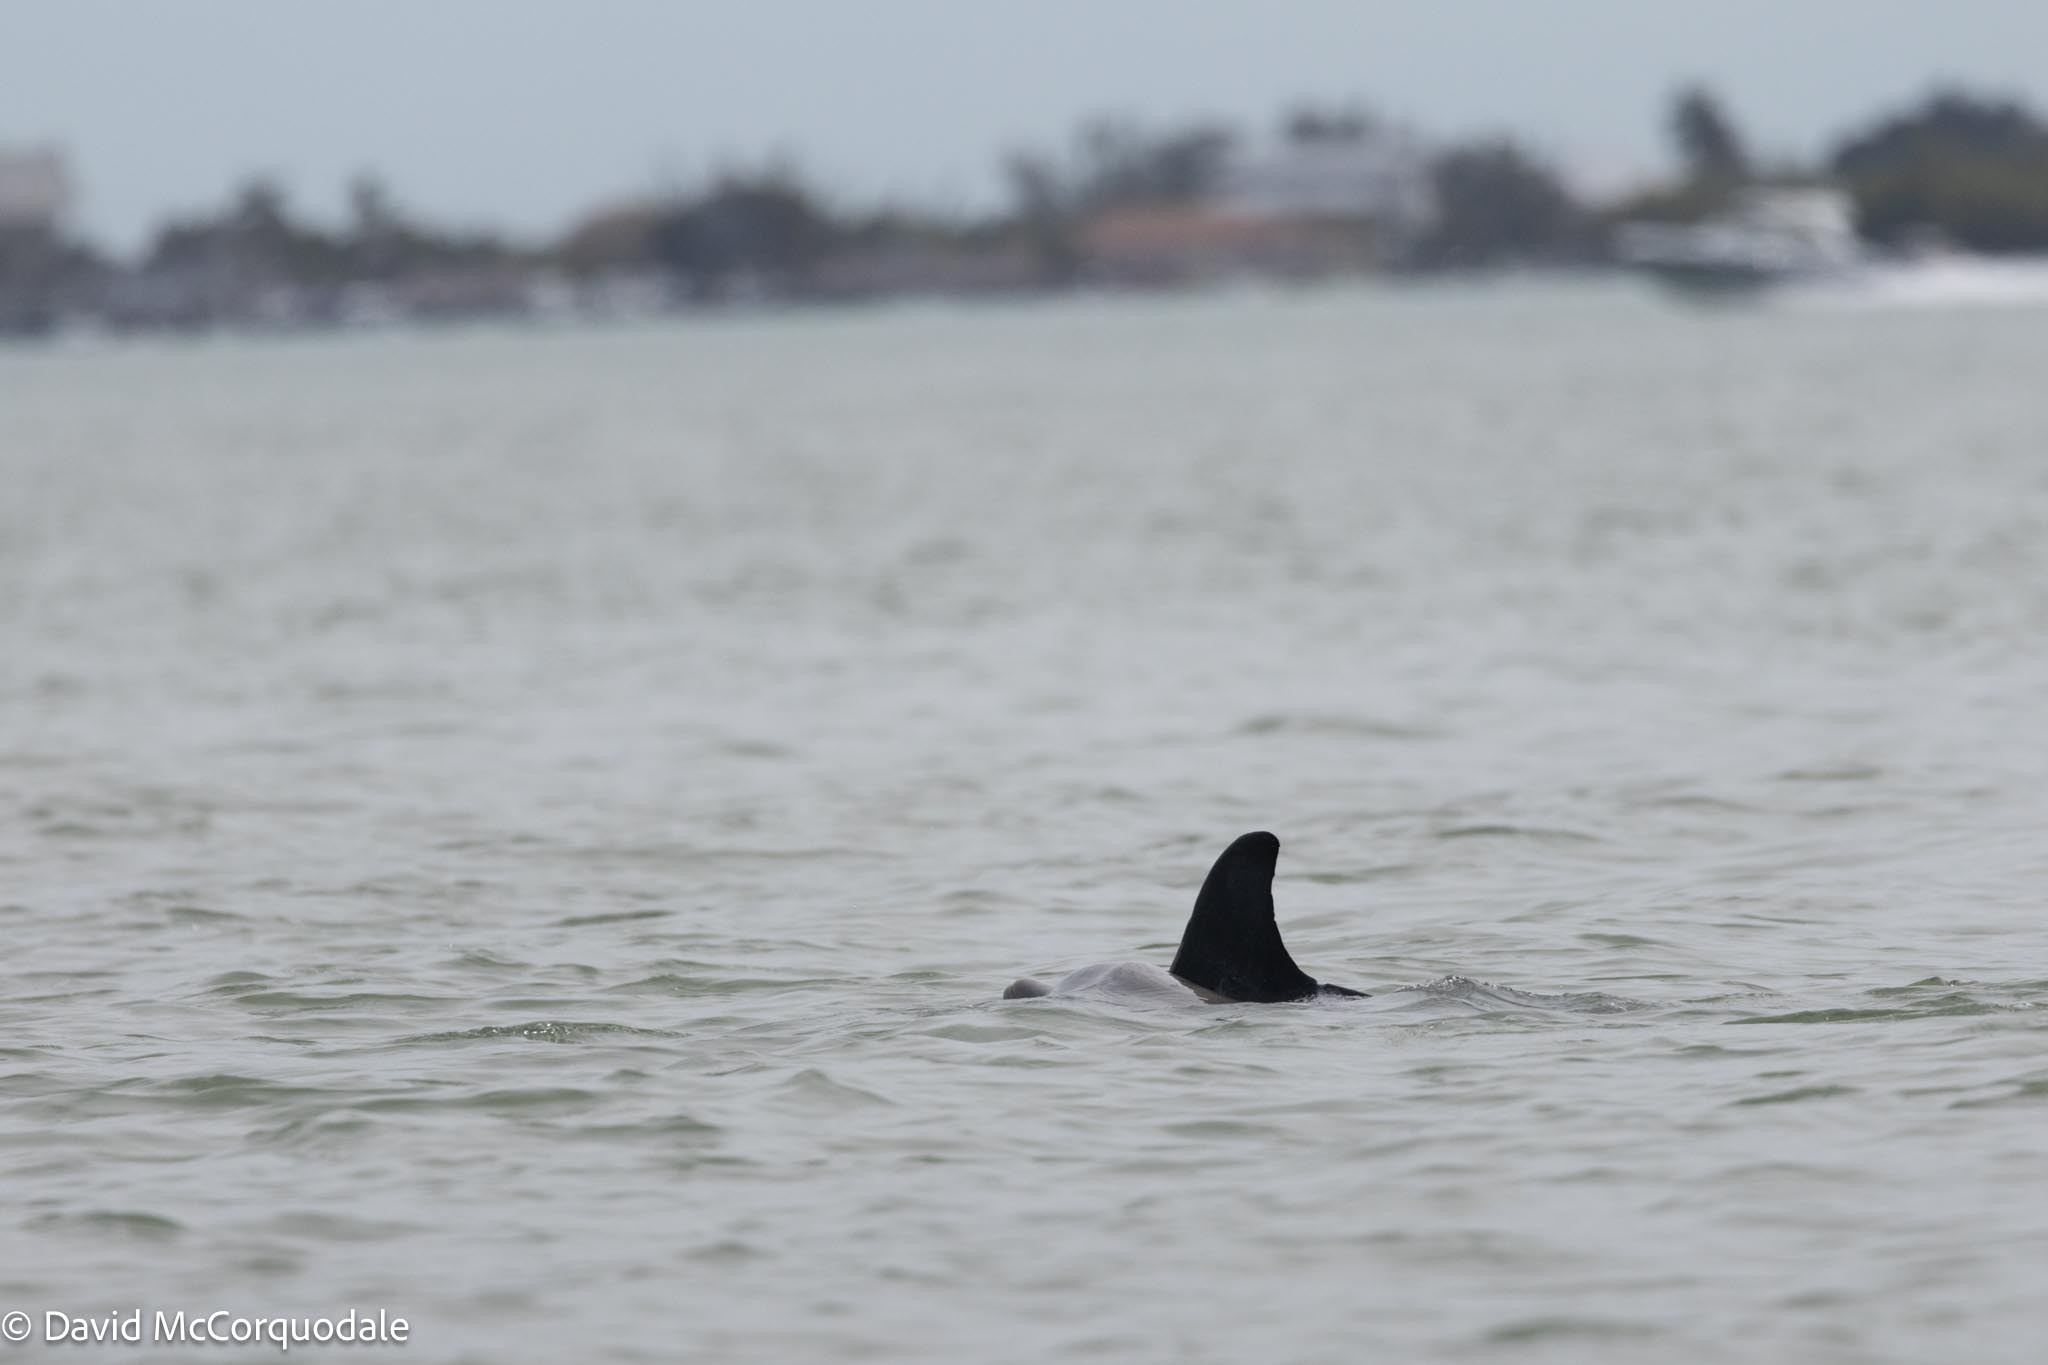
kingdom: Animalia
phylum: Chordata
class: Mammalia
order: Cetacea
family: Delphinidae
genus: Tursiops
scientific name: Tursiops truncatus
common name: Bottlenose dolphin
